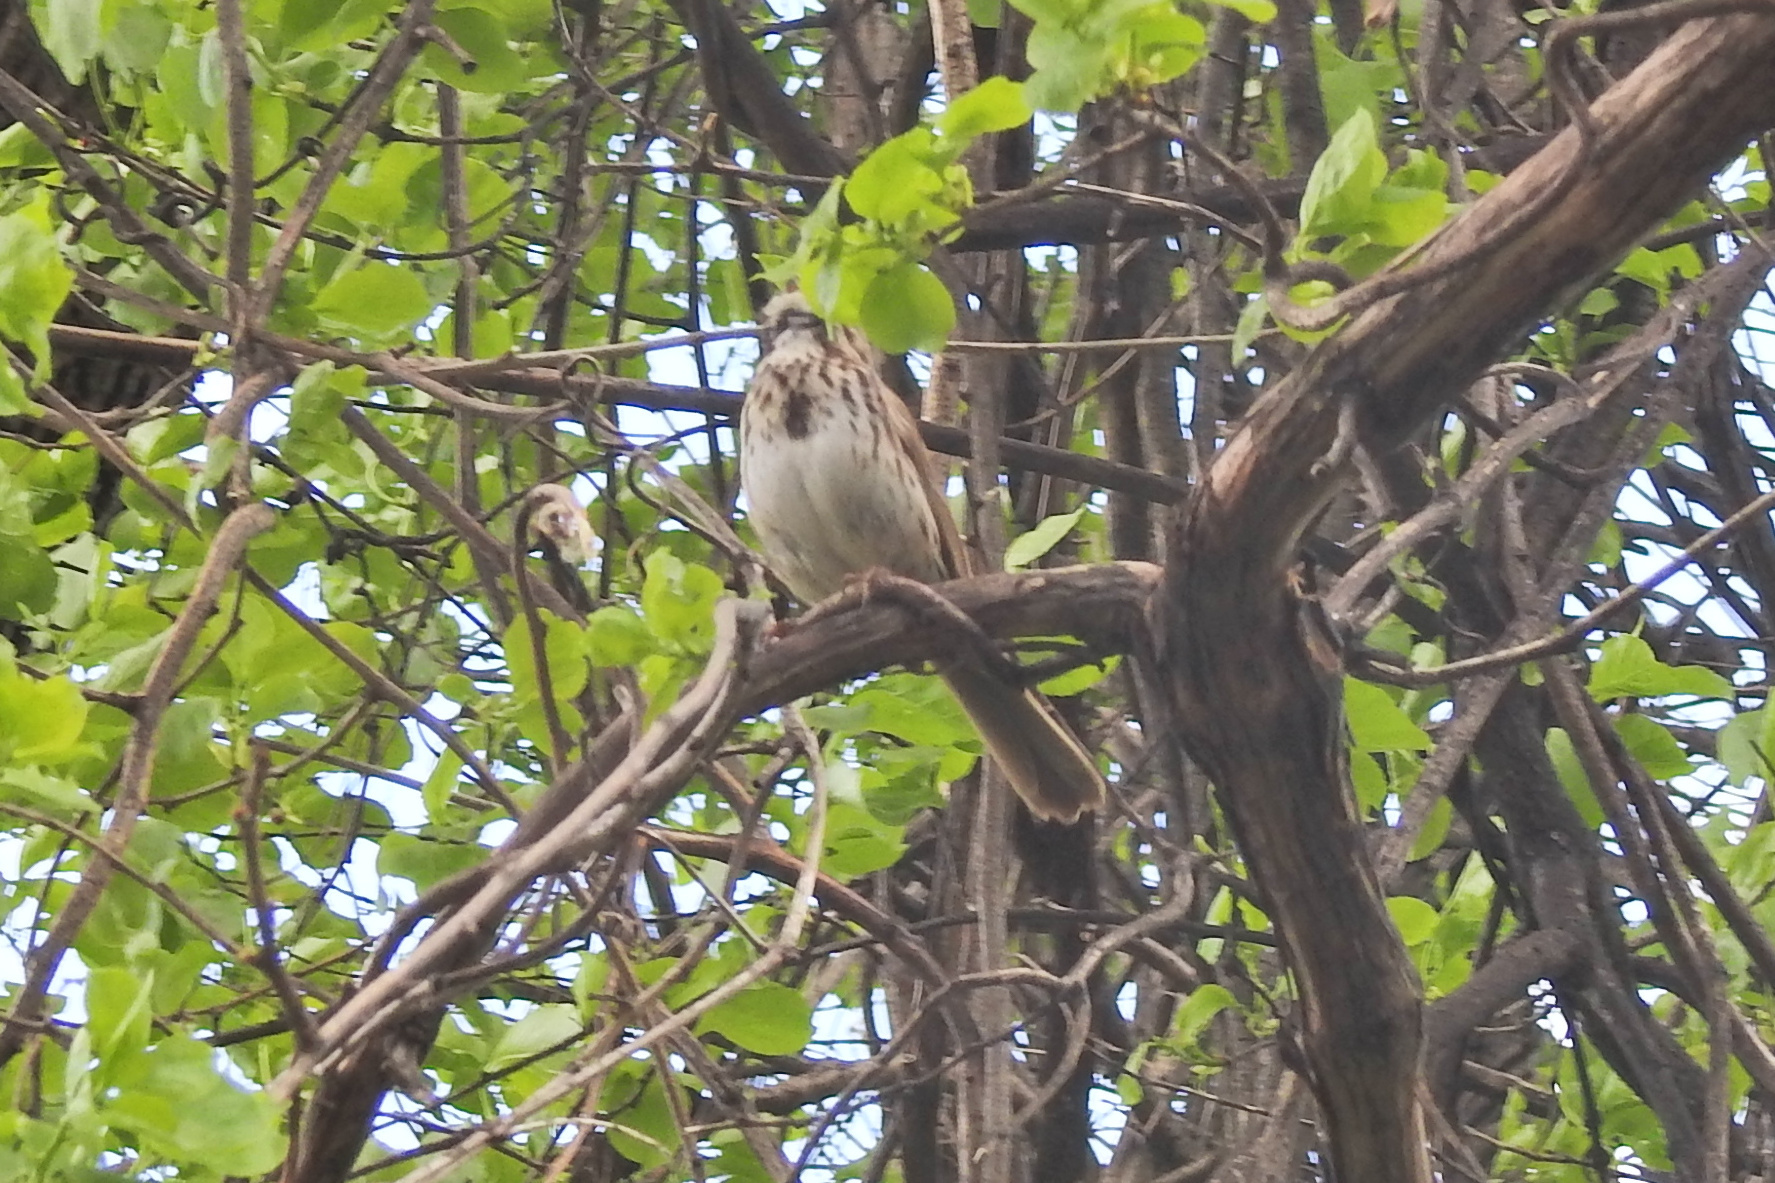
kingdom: Animalia
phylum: Chordata
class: Aves
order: Passeriformes
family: Passerellidae
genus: Melospiza
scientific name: Melospiza melodia
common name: Song sparrow
